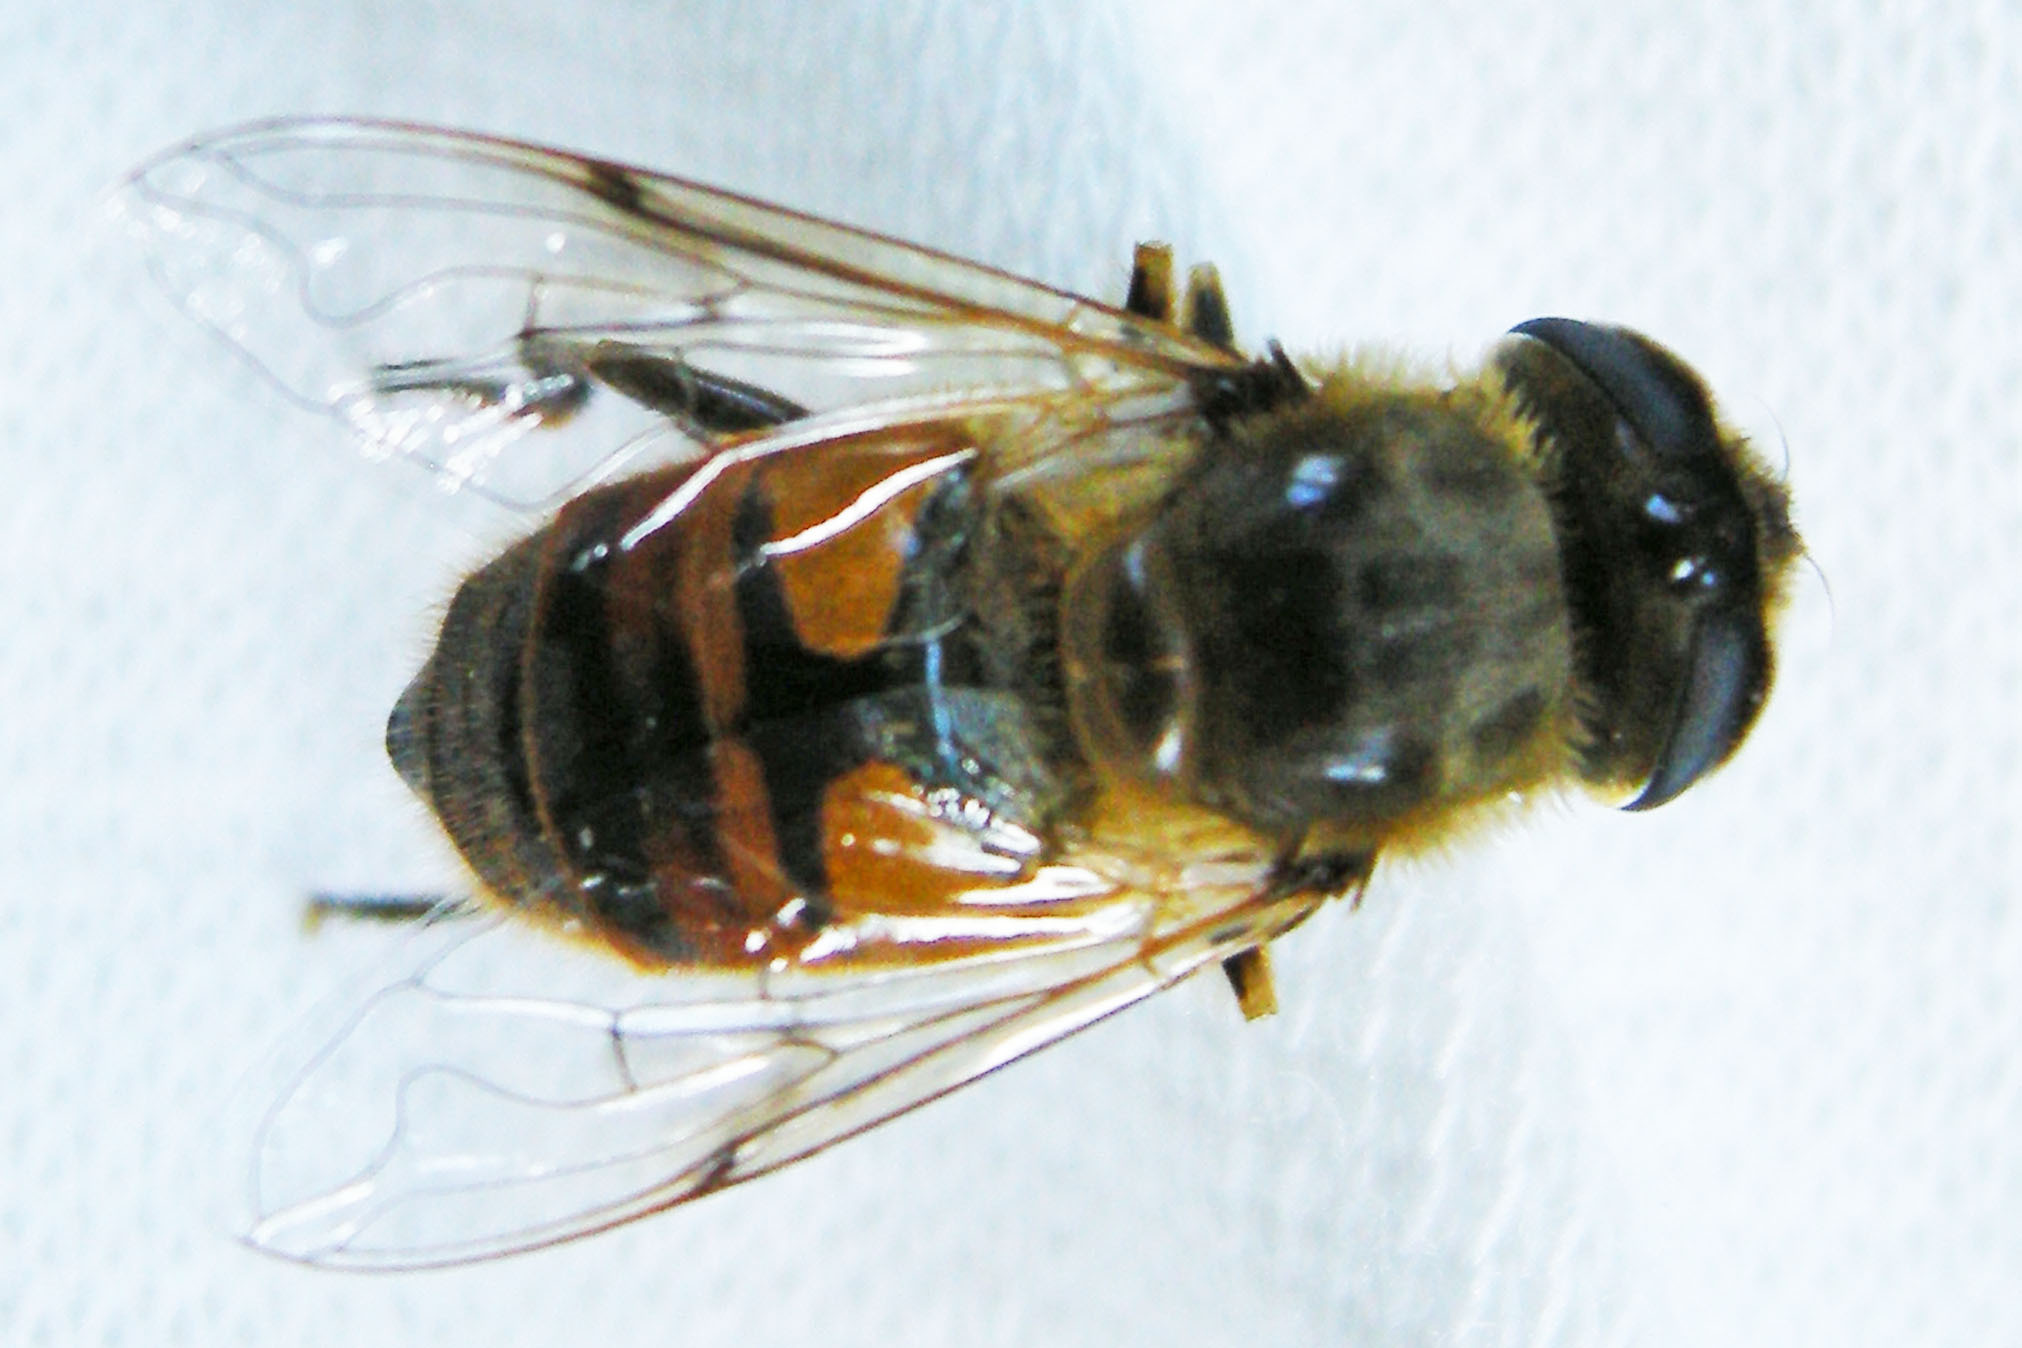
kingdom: Animalia
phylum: Arthropoda
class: Insecta
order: Diptera
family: Syrphidae
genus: Eristalis
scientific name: Eristalis tenax
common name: Drone fly
